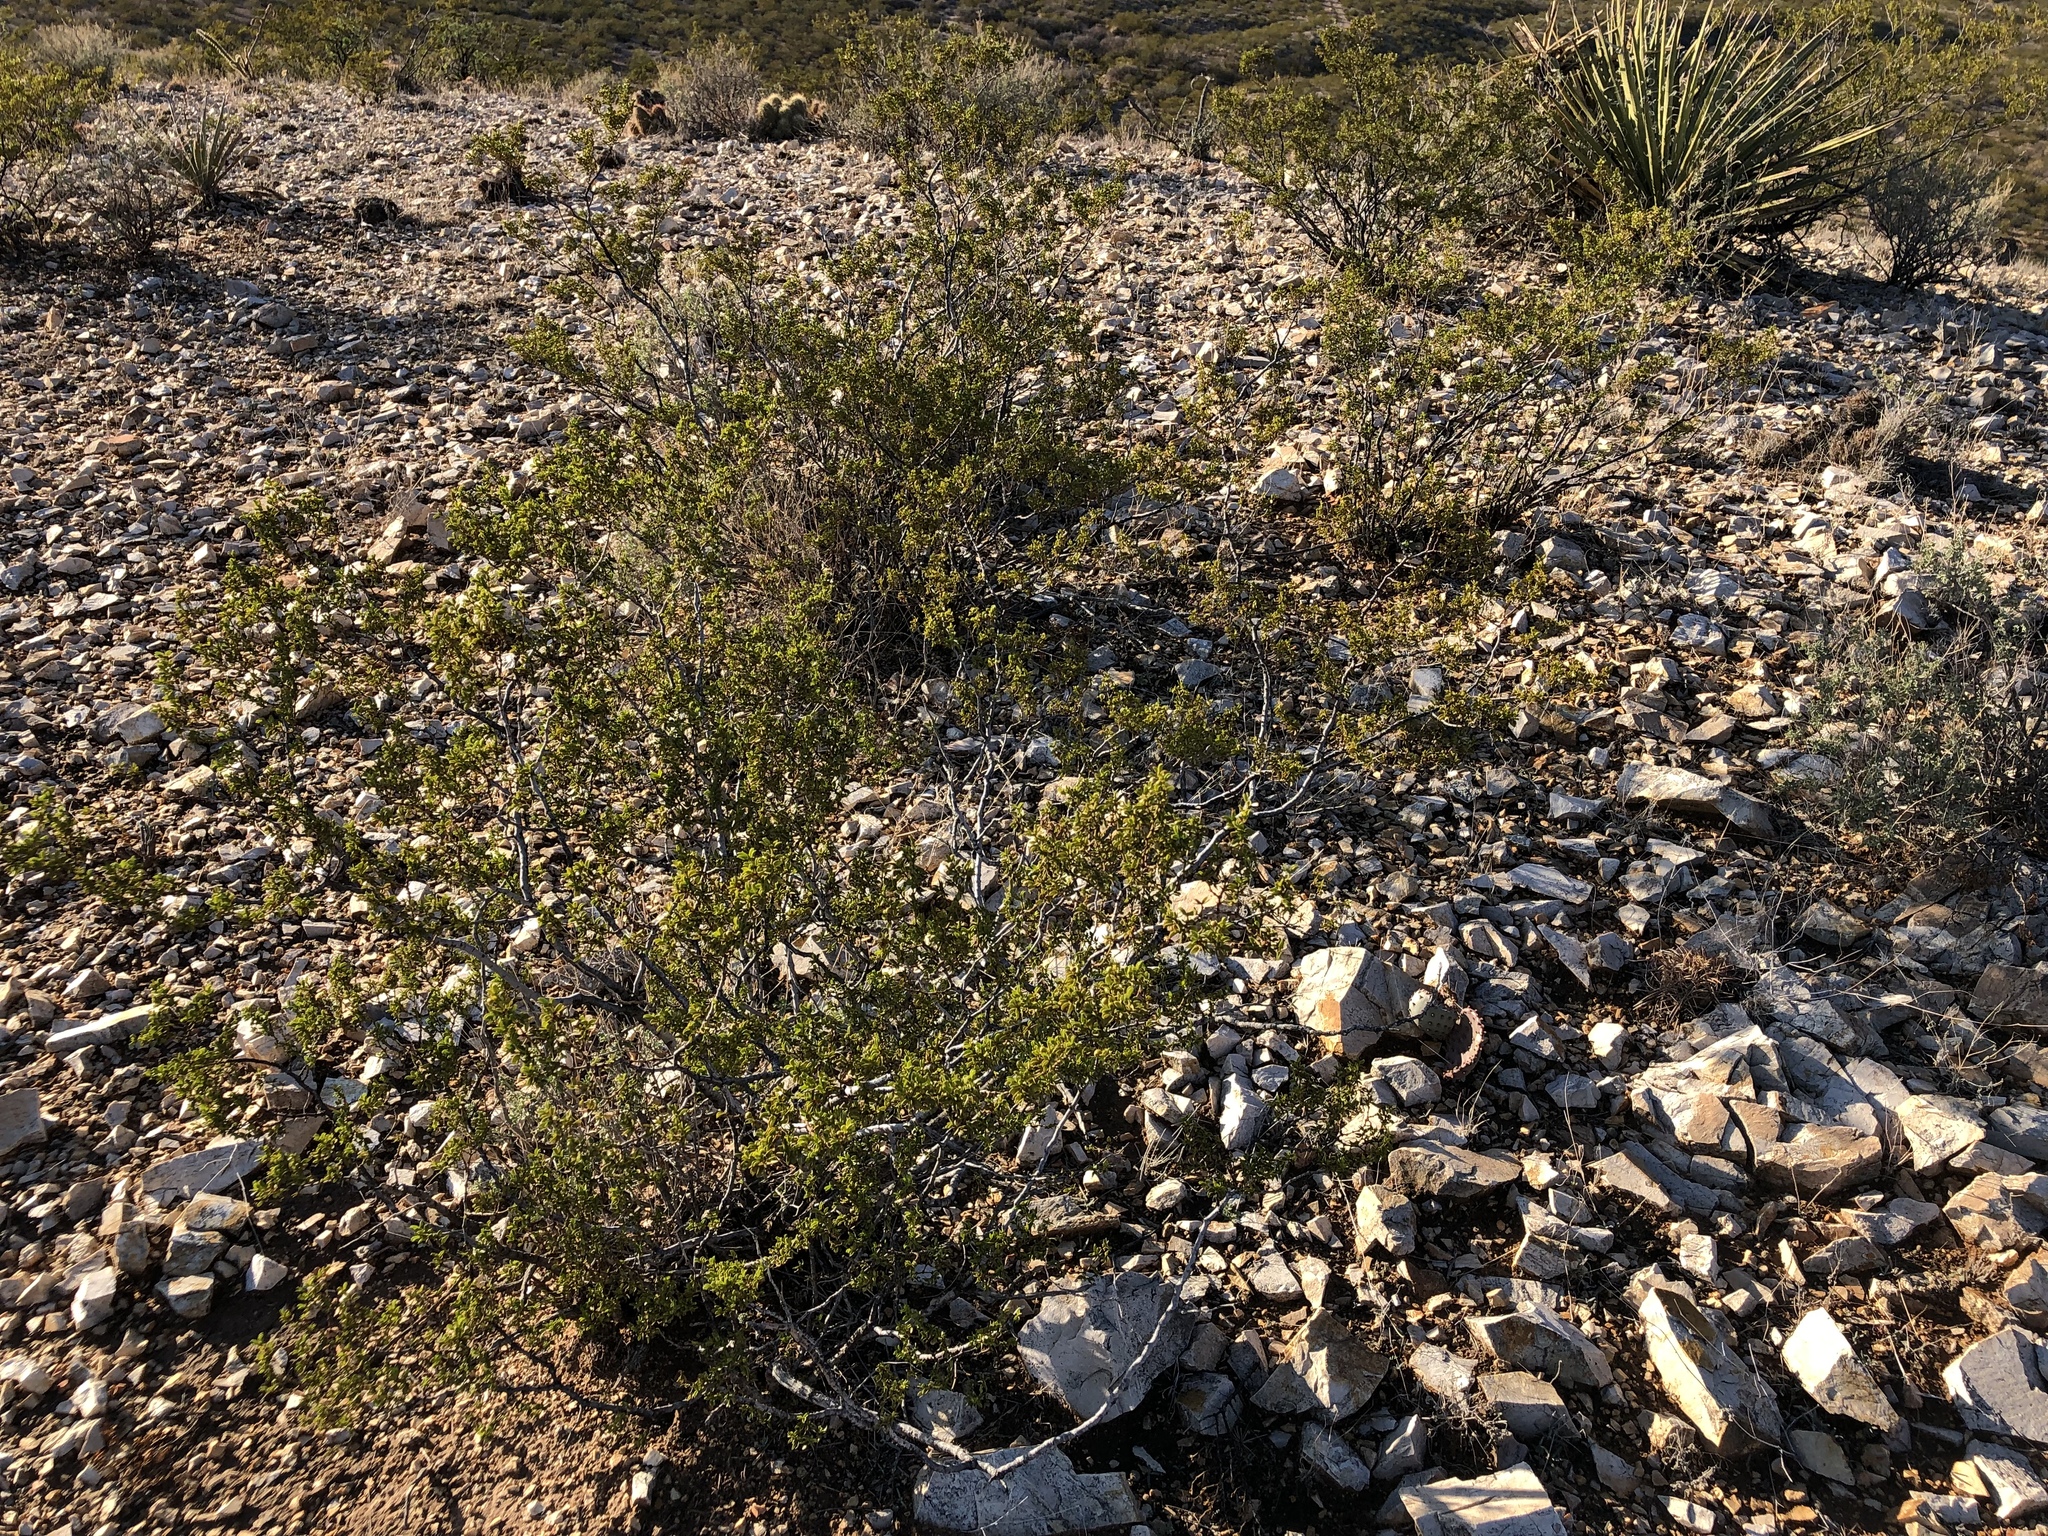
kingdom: Plantae
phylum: Tracheophyta
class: Magnoliopsida
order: Zygophyllales
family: Zygophyllaceae
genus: Larrea
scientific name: Larrea tridentata
